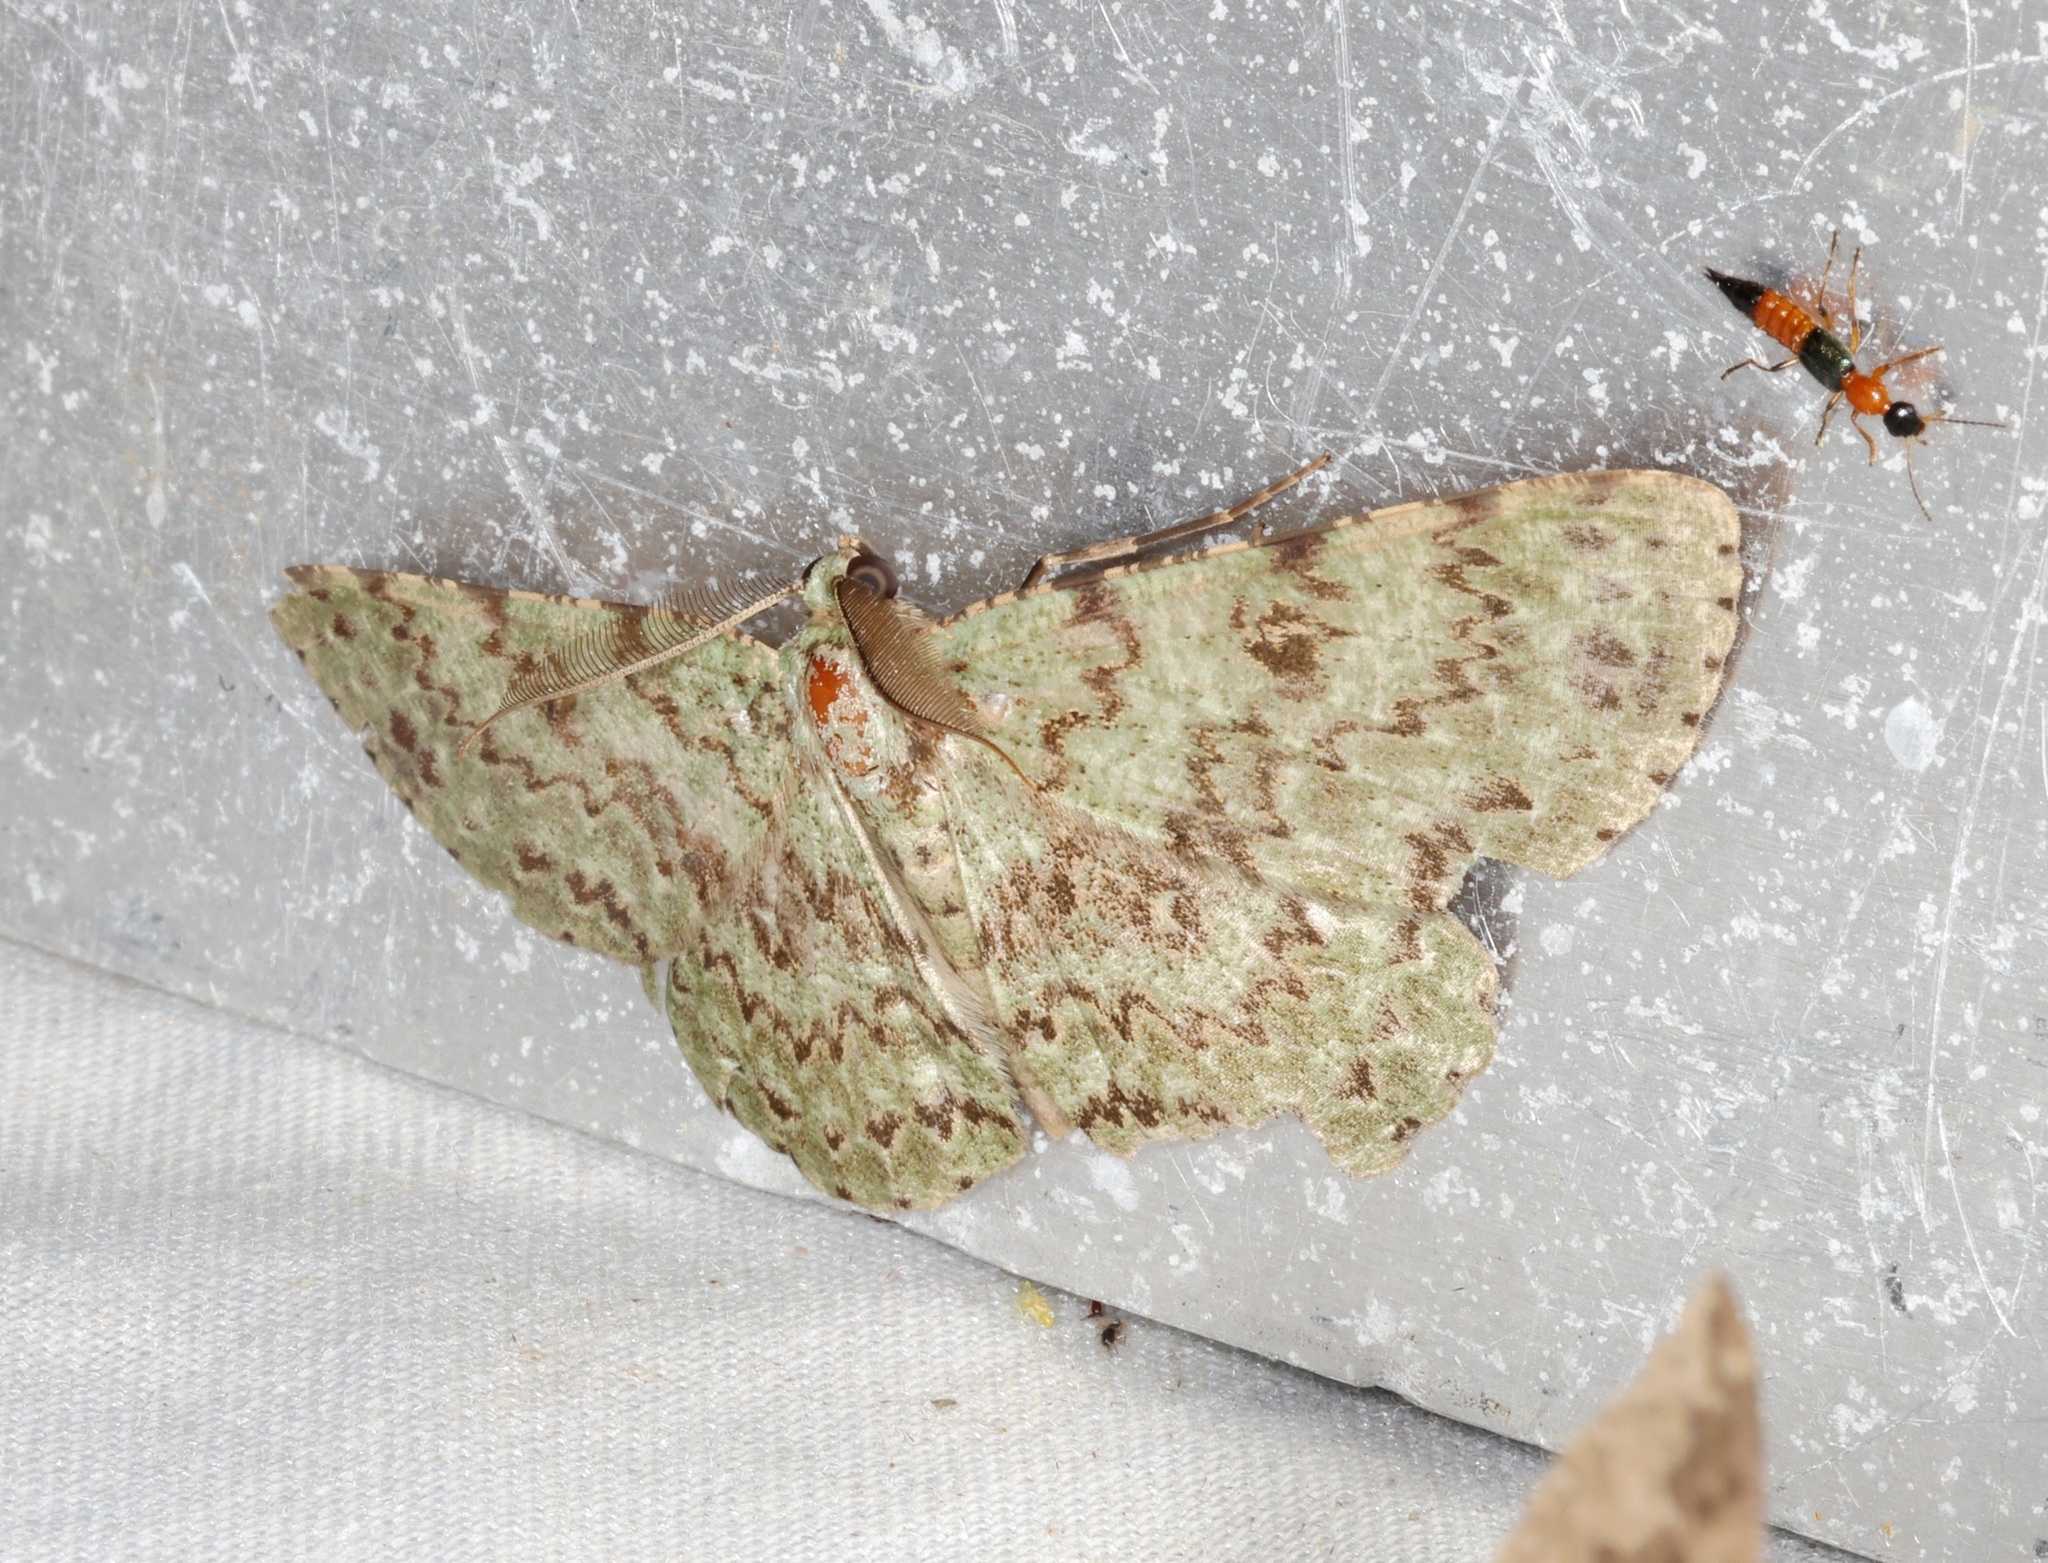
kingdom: Animalia
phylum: Arthropoda
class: Insecta
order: Lepidoptera
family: Geometridae
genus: Ophthalmitis
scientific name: Ophthalmitis herbidaria
